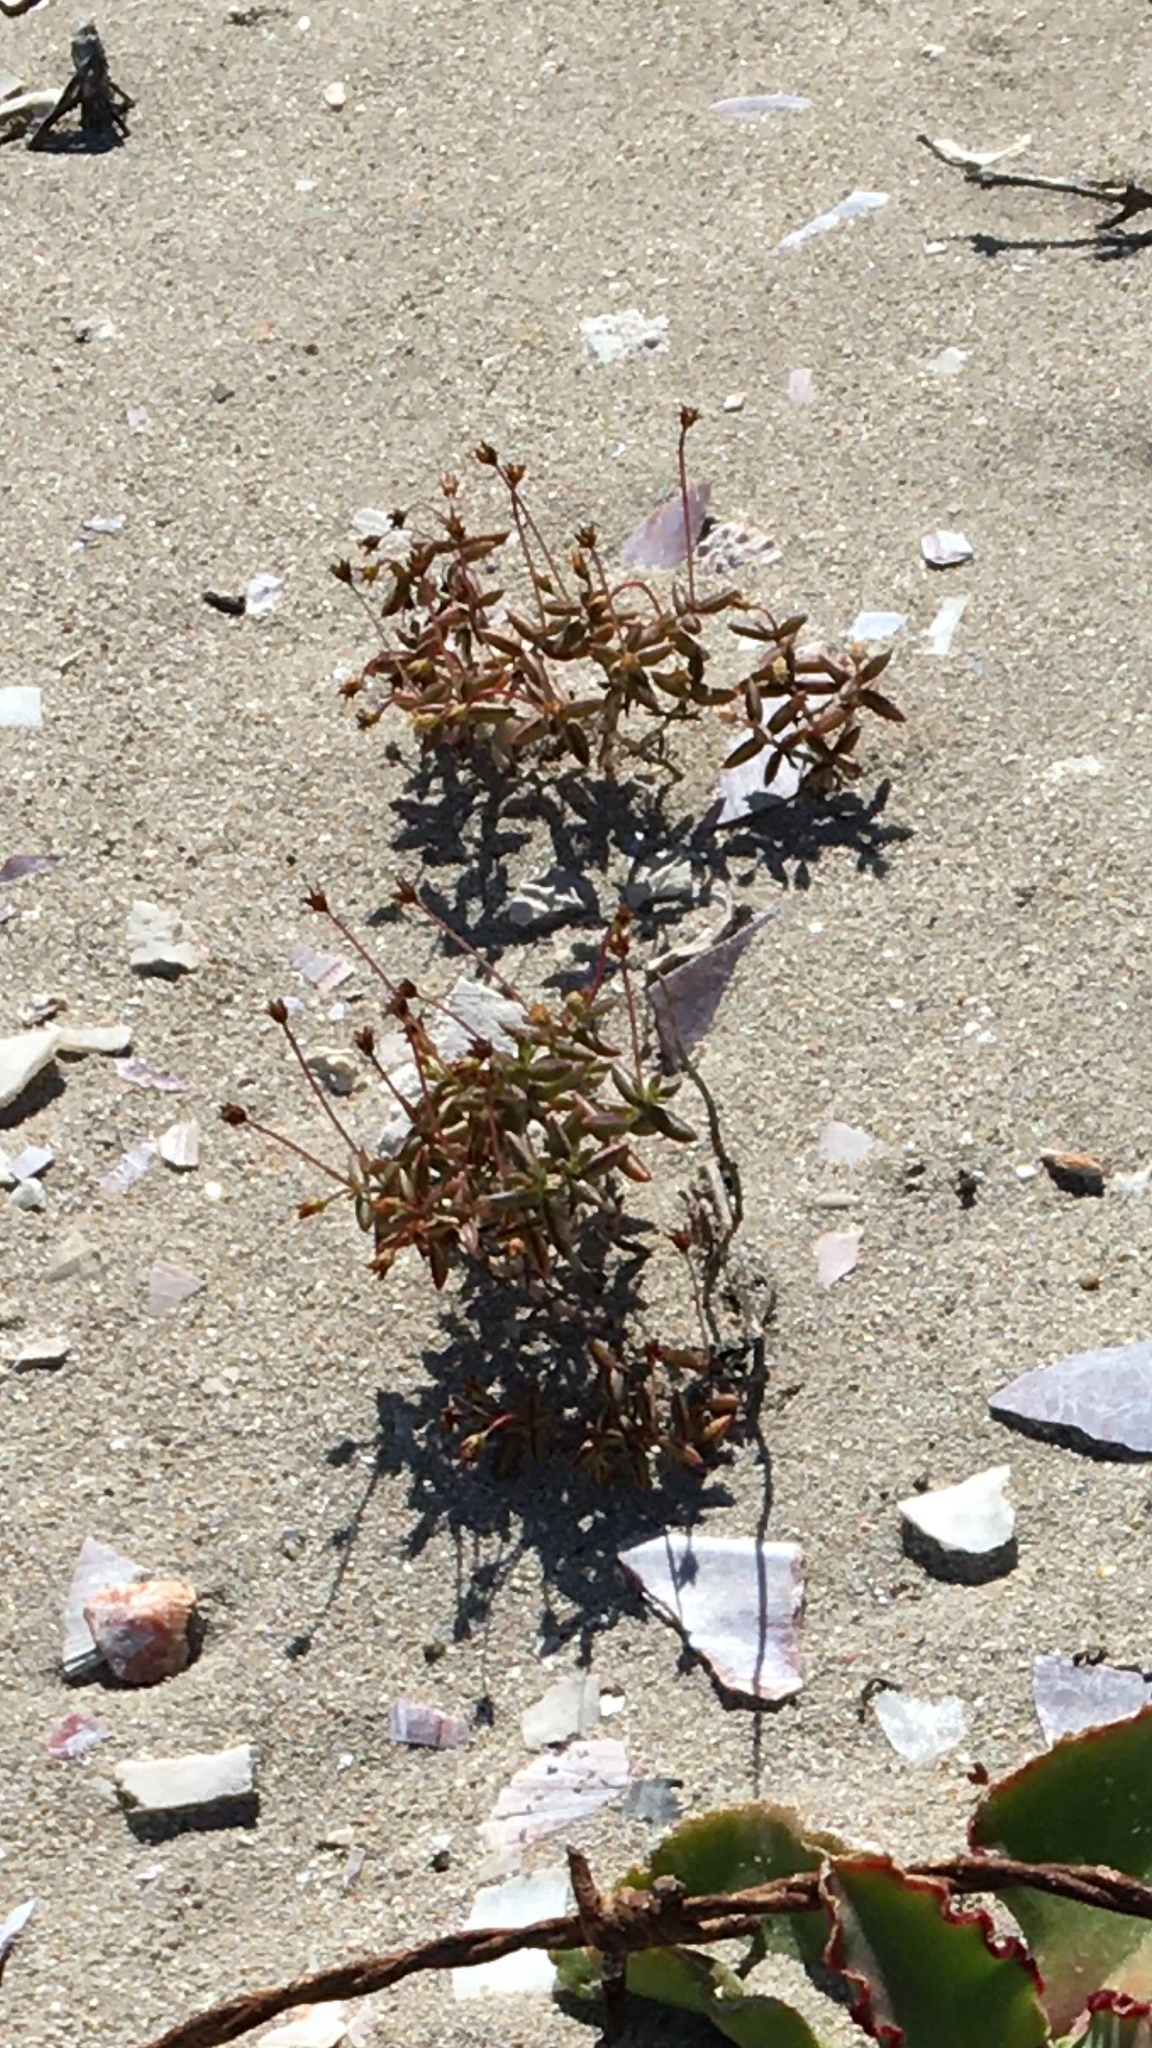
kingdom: Plantae
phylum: Tracheophyta
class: Magnoliopsida
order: Saxifragales
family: Crassulaceae
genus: Crassula
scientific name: Crassula expansa
